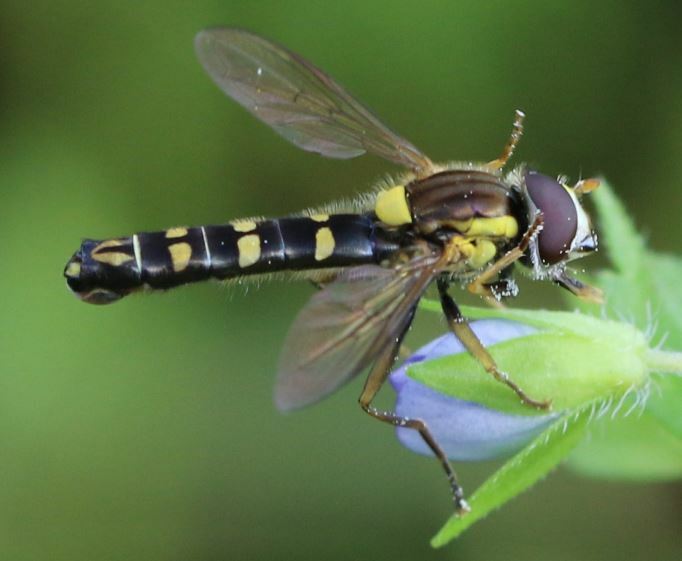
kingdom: Animalia
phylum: Arthropoda
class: Insecta
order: Diptera
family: Syrphidae
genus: Sphaerophoria
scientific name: Sphaerophoria
